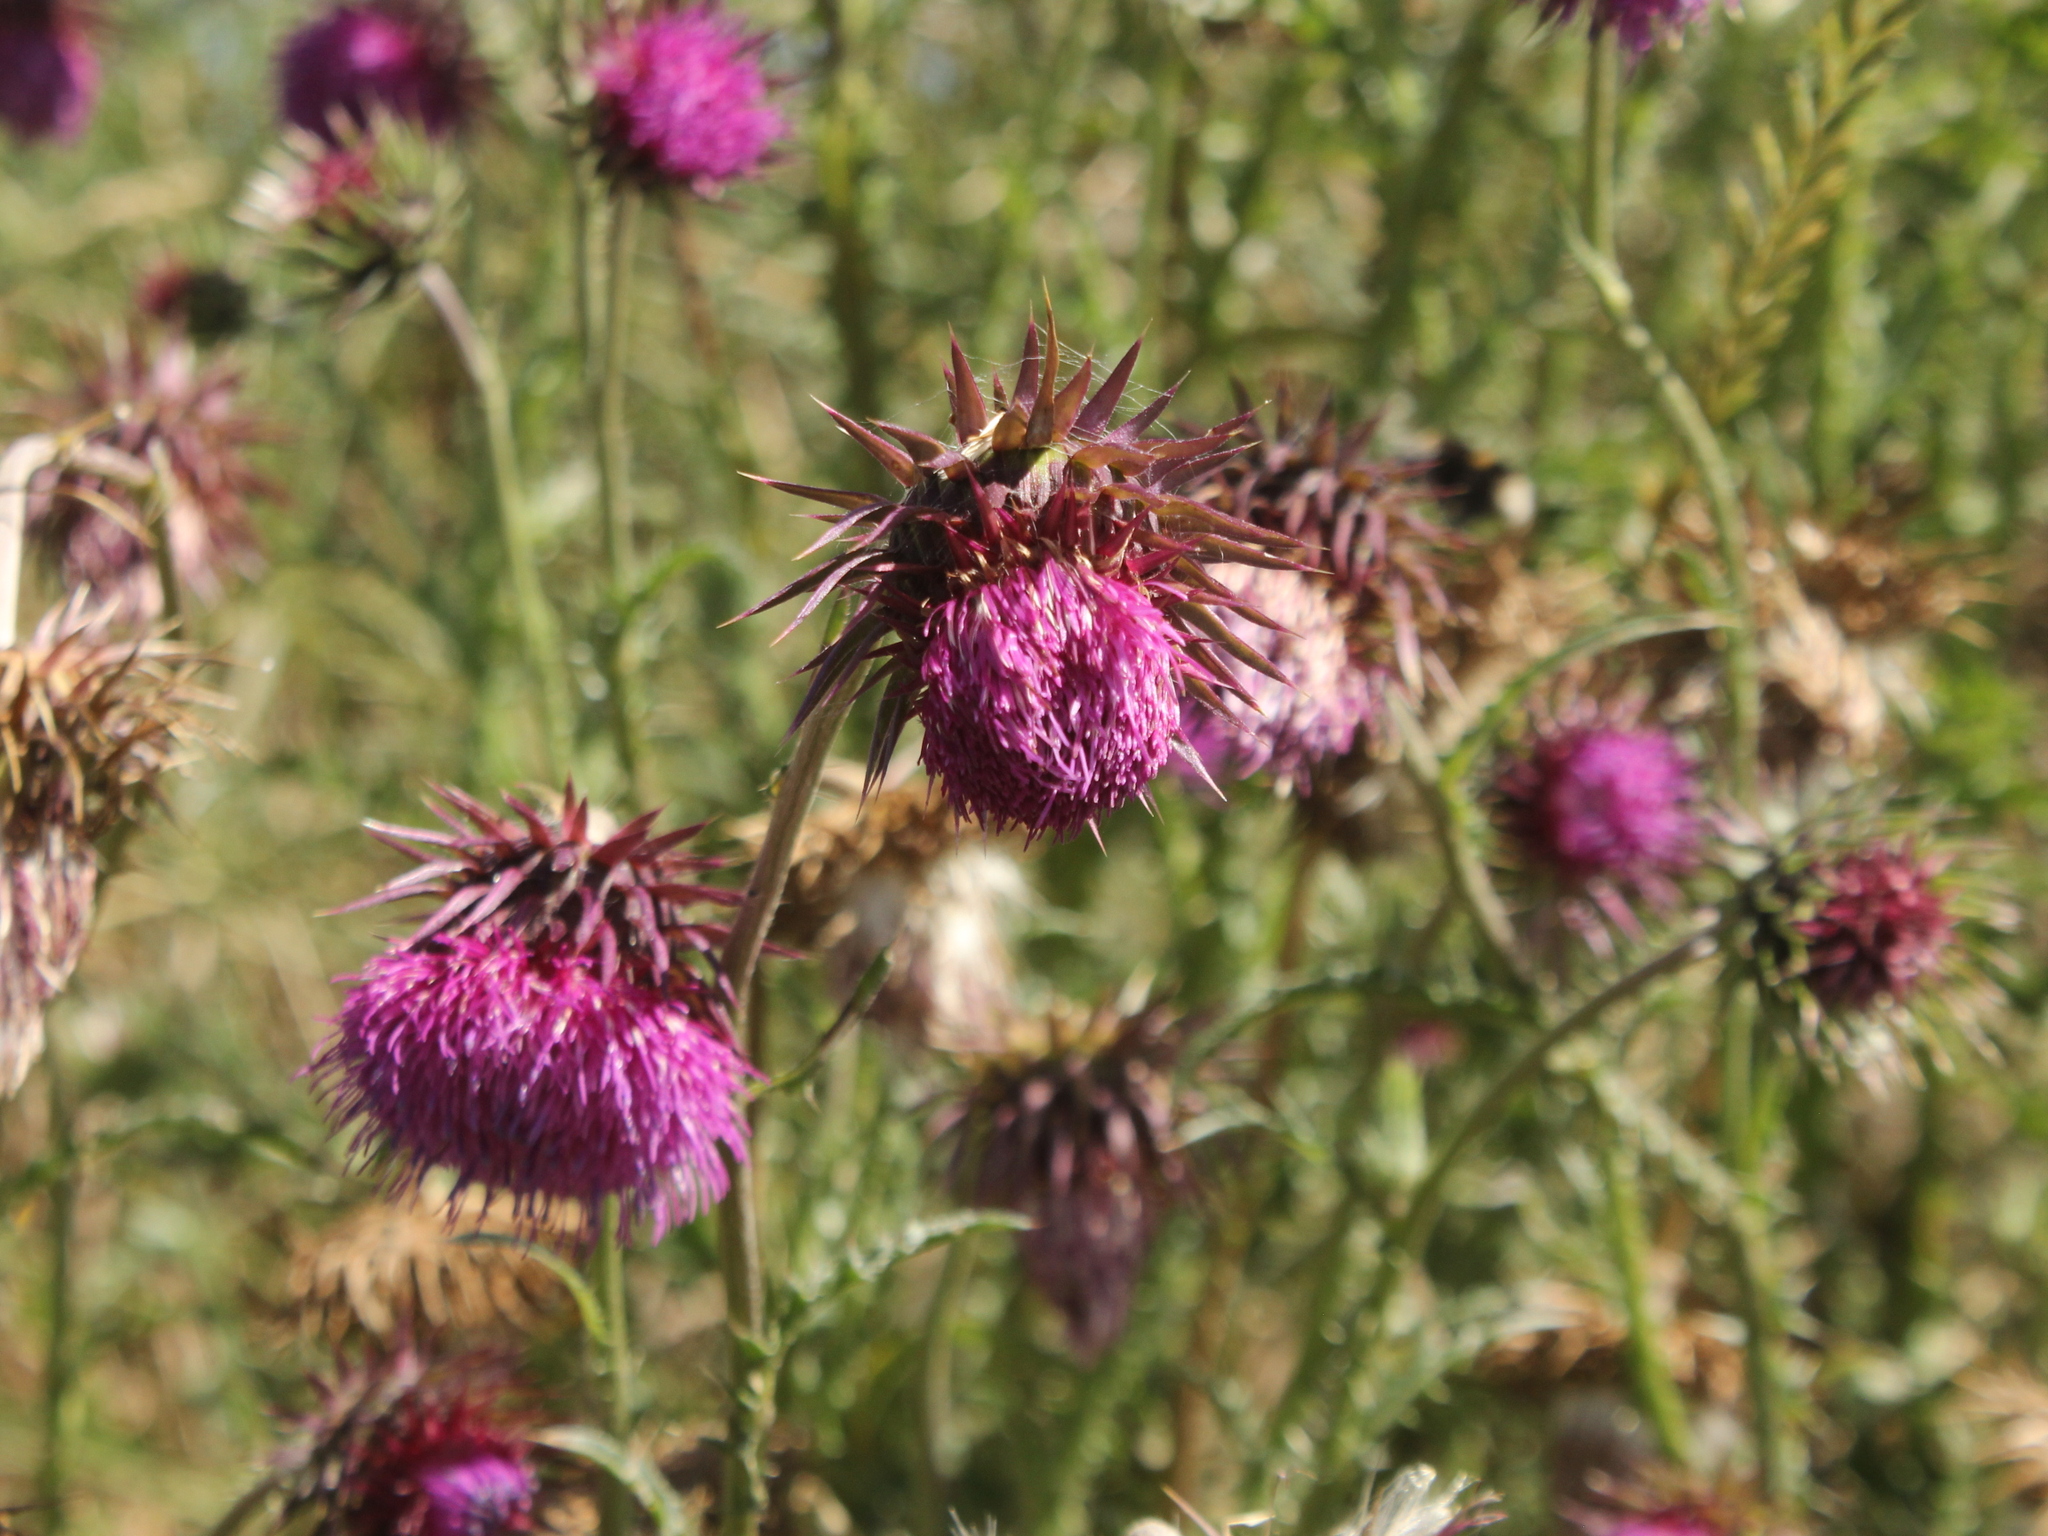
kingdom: Plantae
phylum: Tracheophyta
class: Magnoliopsida
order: Asterales
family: Asteraceae
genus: Carduus
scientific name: Carduus nutans
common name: Musk thistle
